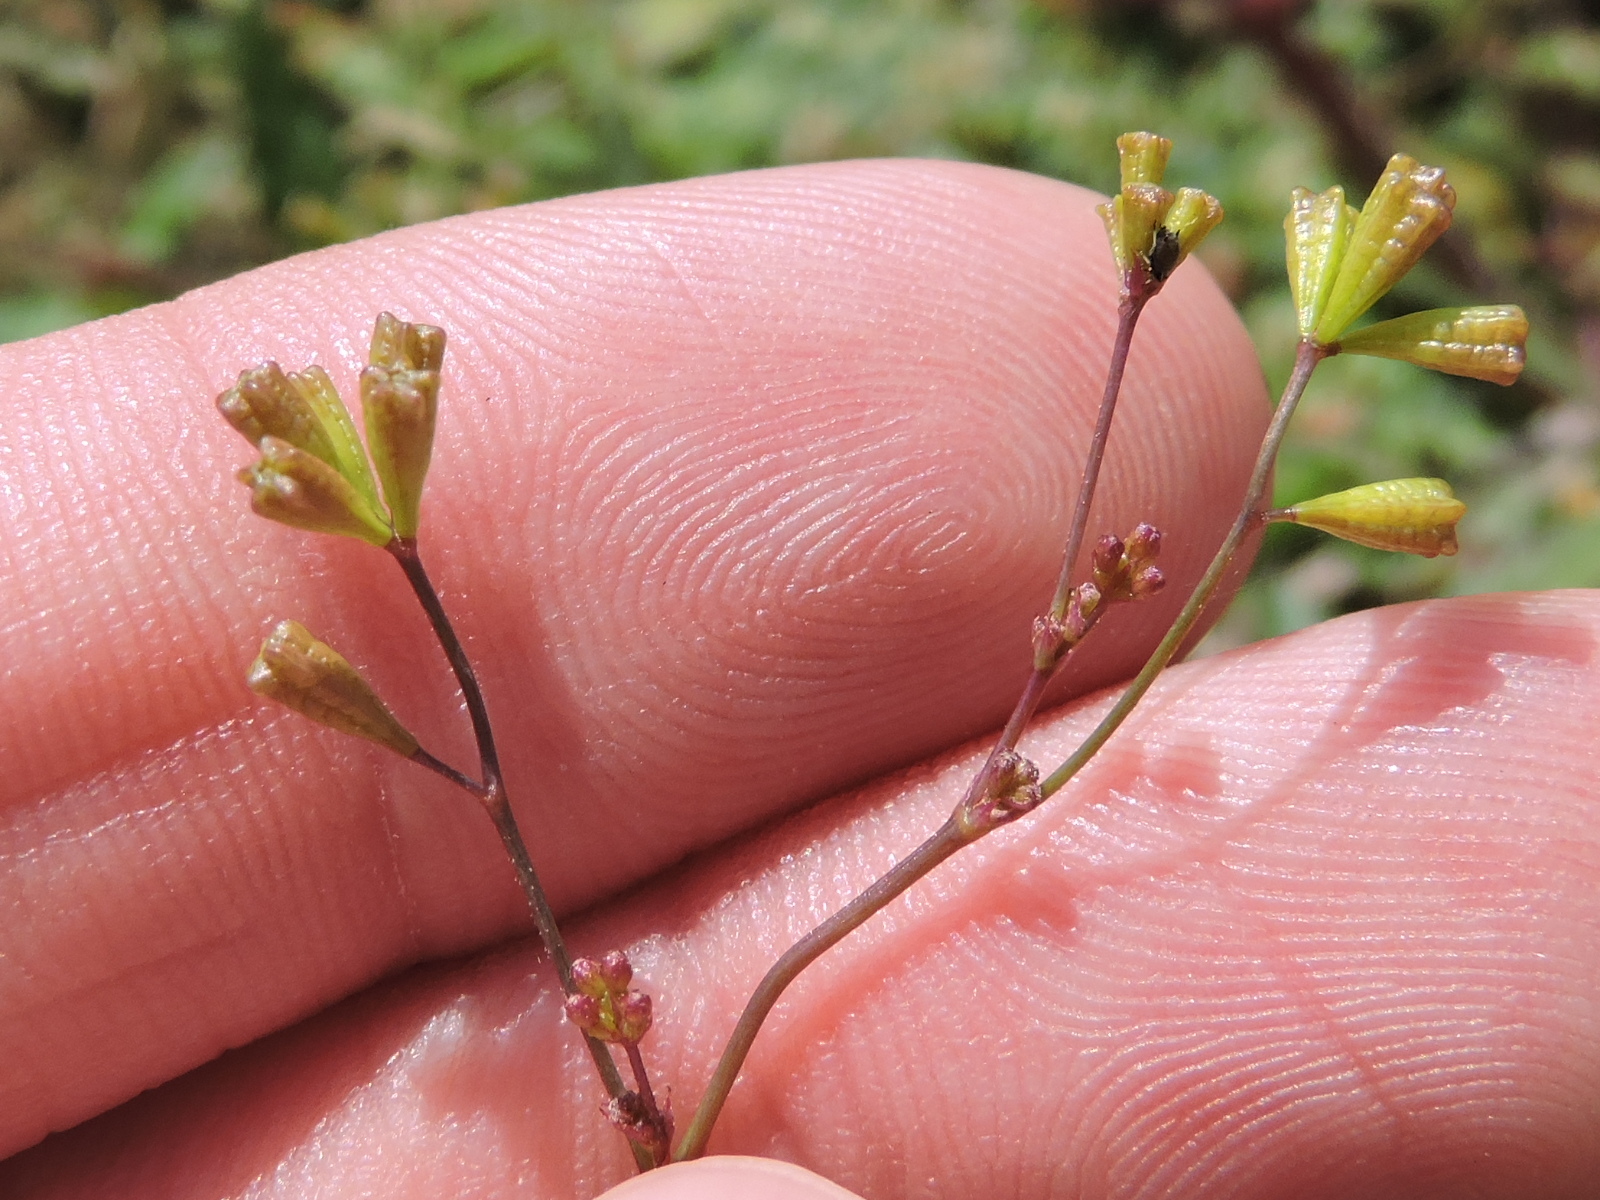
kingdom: Plantae
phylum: Tracheophyta
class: Magnoliopsida
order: Caryophyllales
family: Nyctaginaceae
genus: Boerhavia
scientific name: Boerhavia erecta
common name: Erect spiderling
